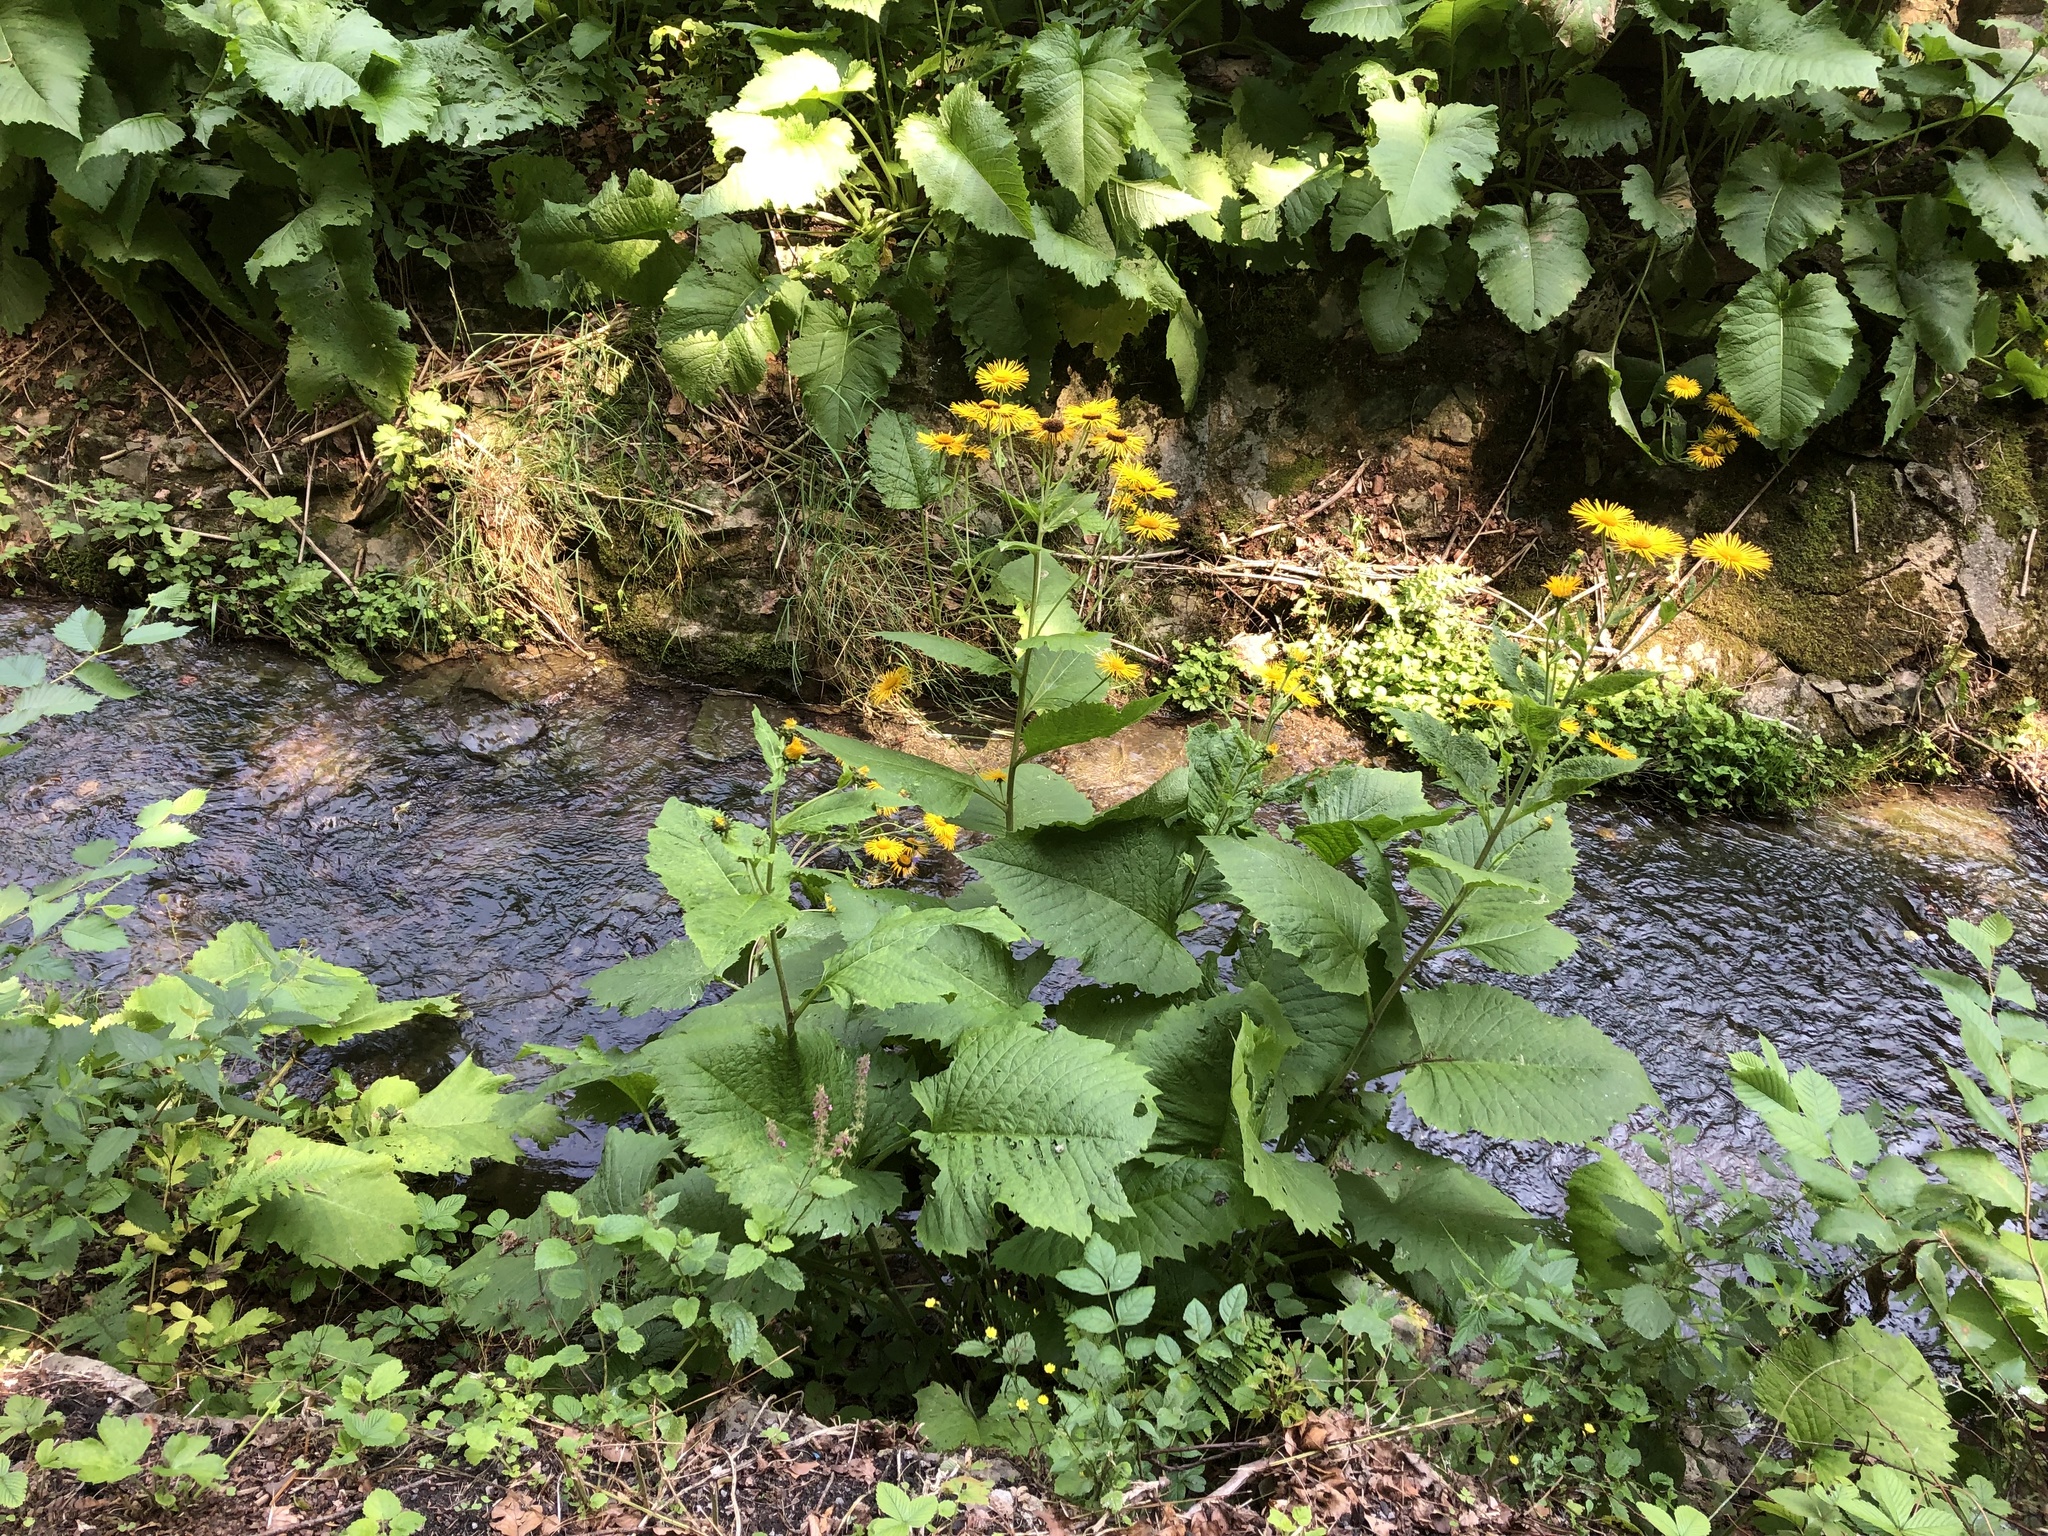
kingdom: Plantae
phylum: Tracheophyta
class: Magnoliopsida
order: Asterales
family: Asteraceae
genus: Telekia
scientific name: Telekia speciosa
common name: Yellow oxeye
